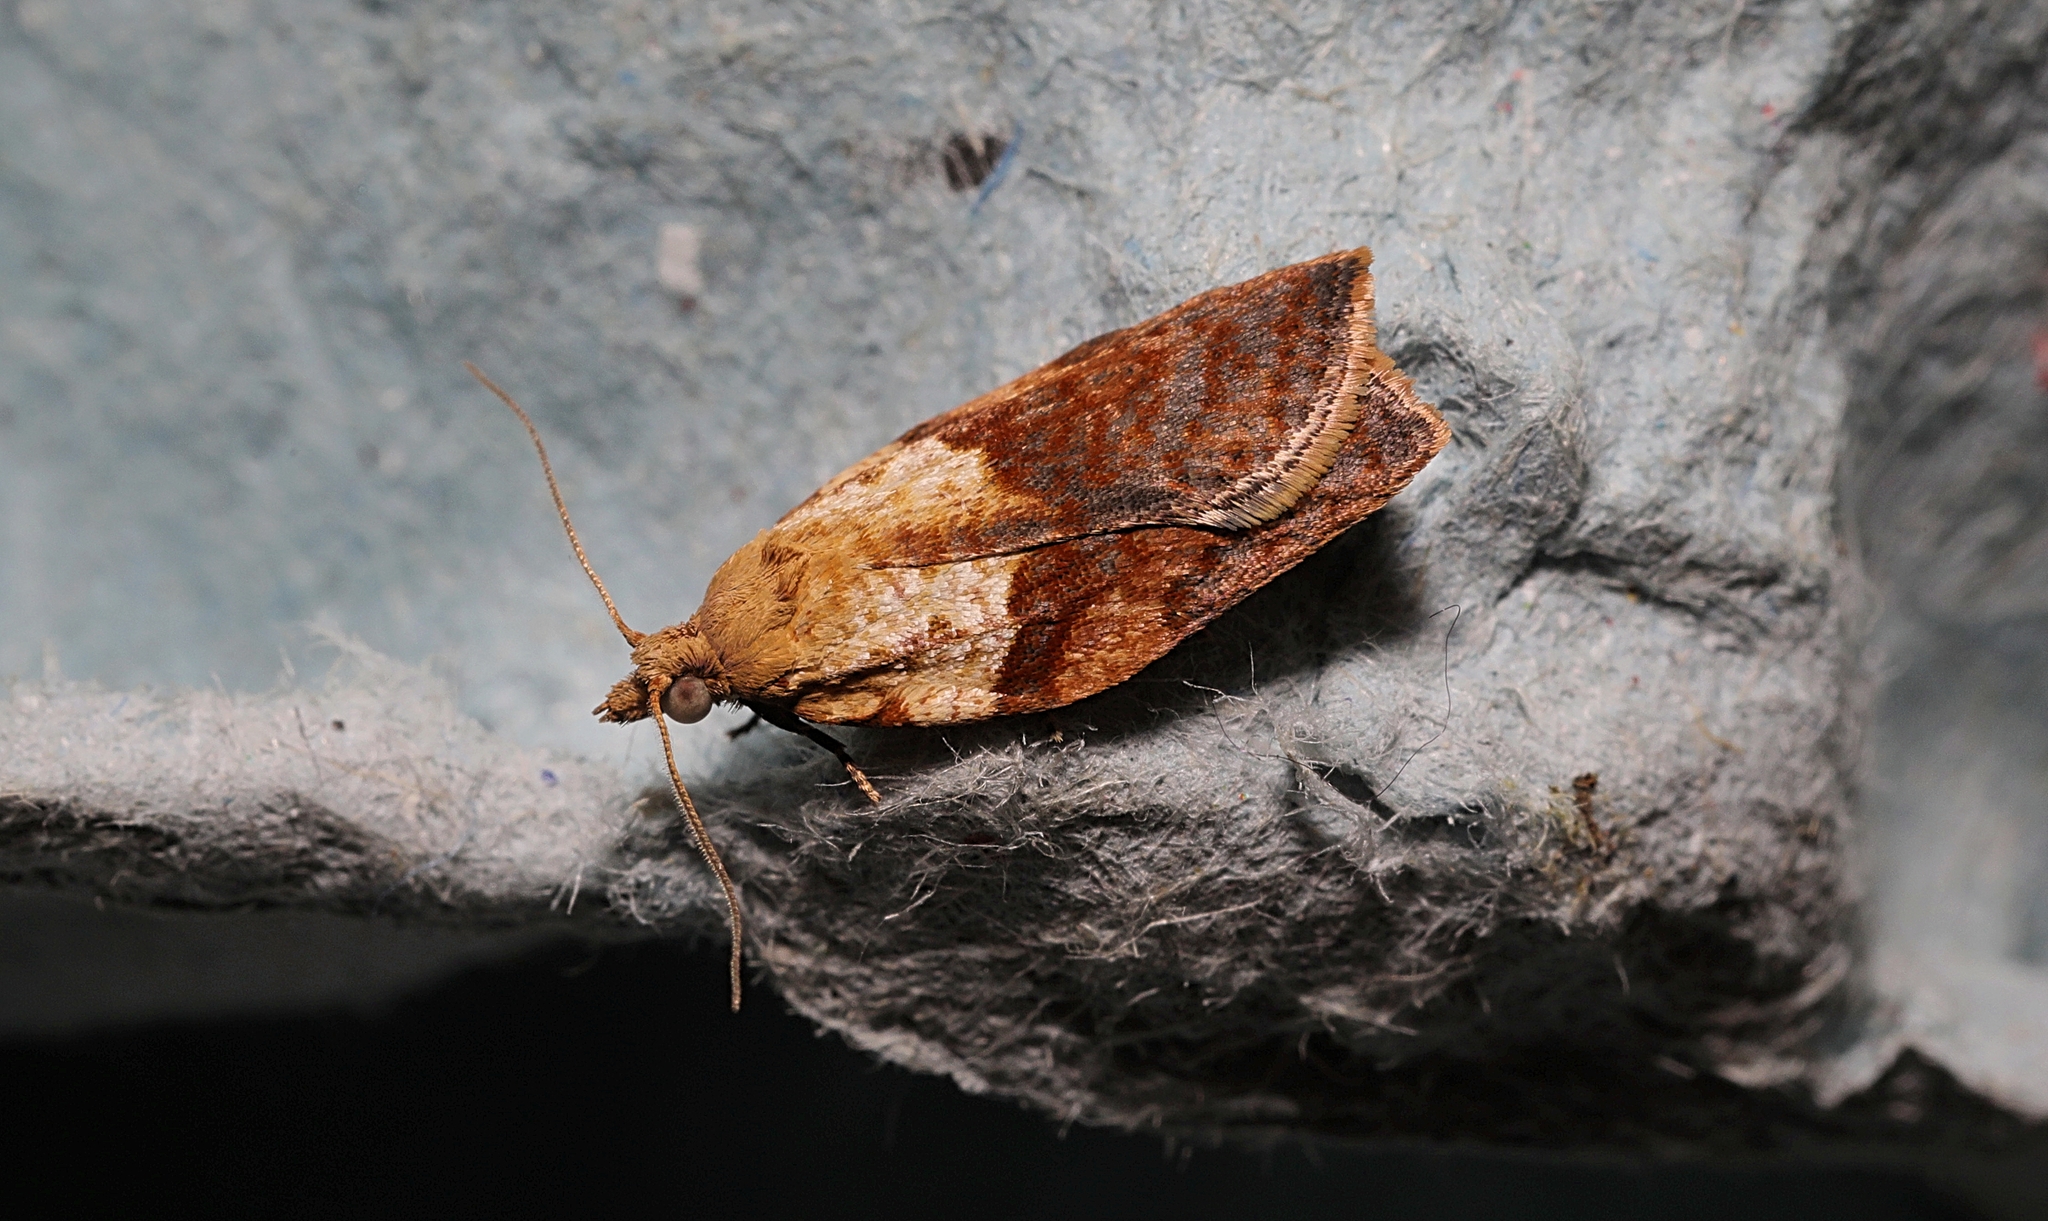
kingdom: Animalia
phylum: Arthropoda
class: Insecta
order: Lepidoptera
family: Tortricidae
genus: Epiphyas
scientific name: Epiphyas postvittana
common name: Light brown apple moth
